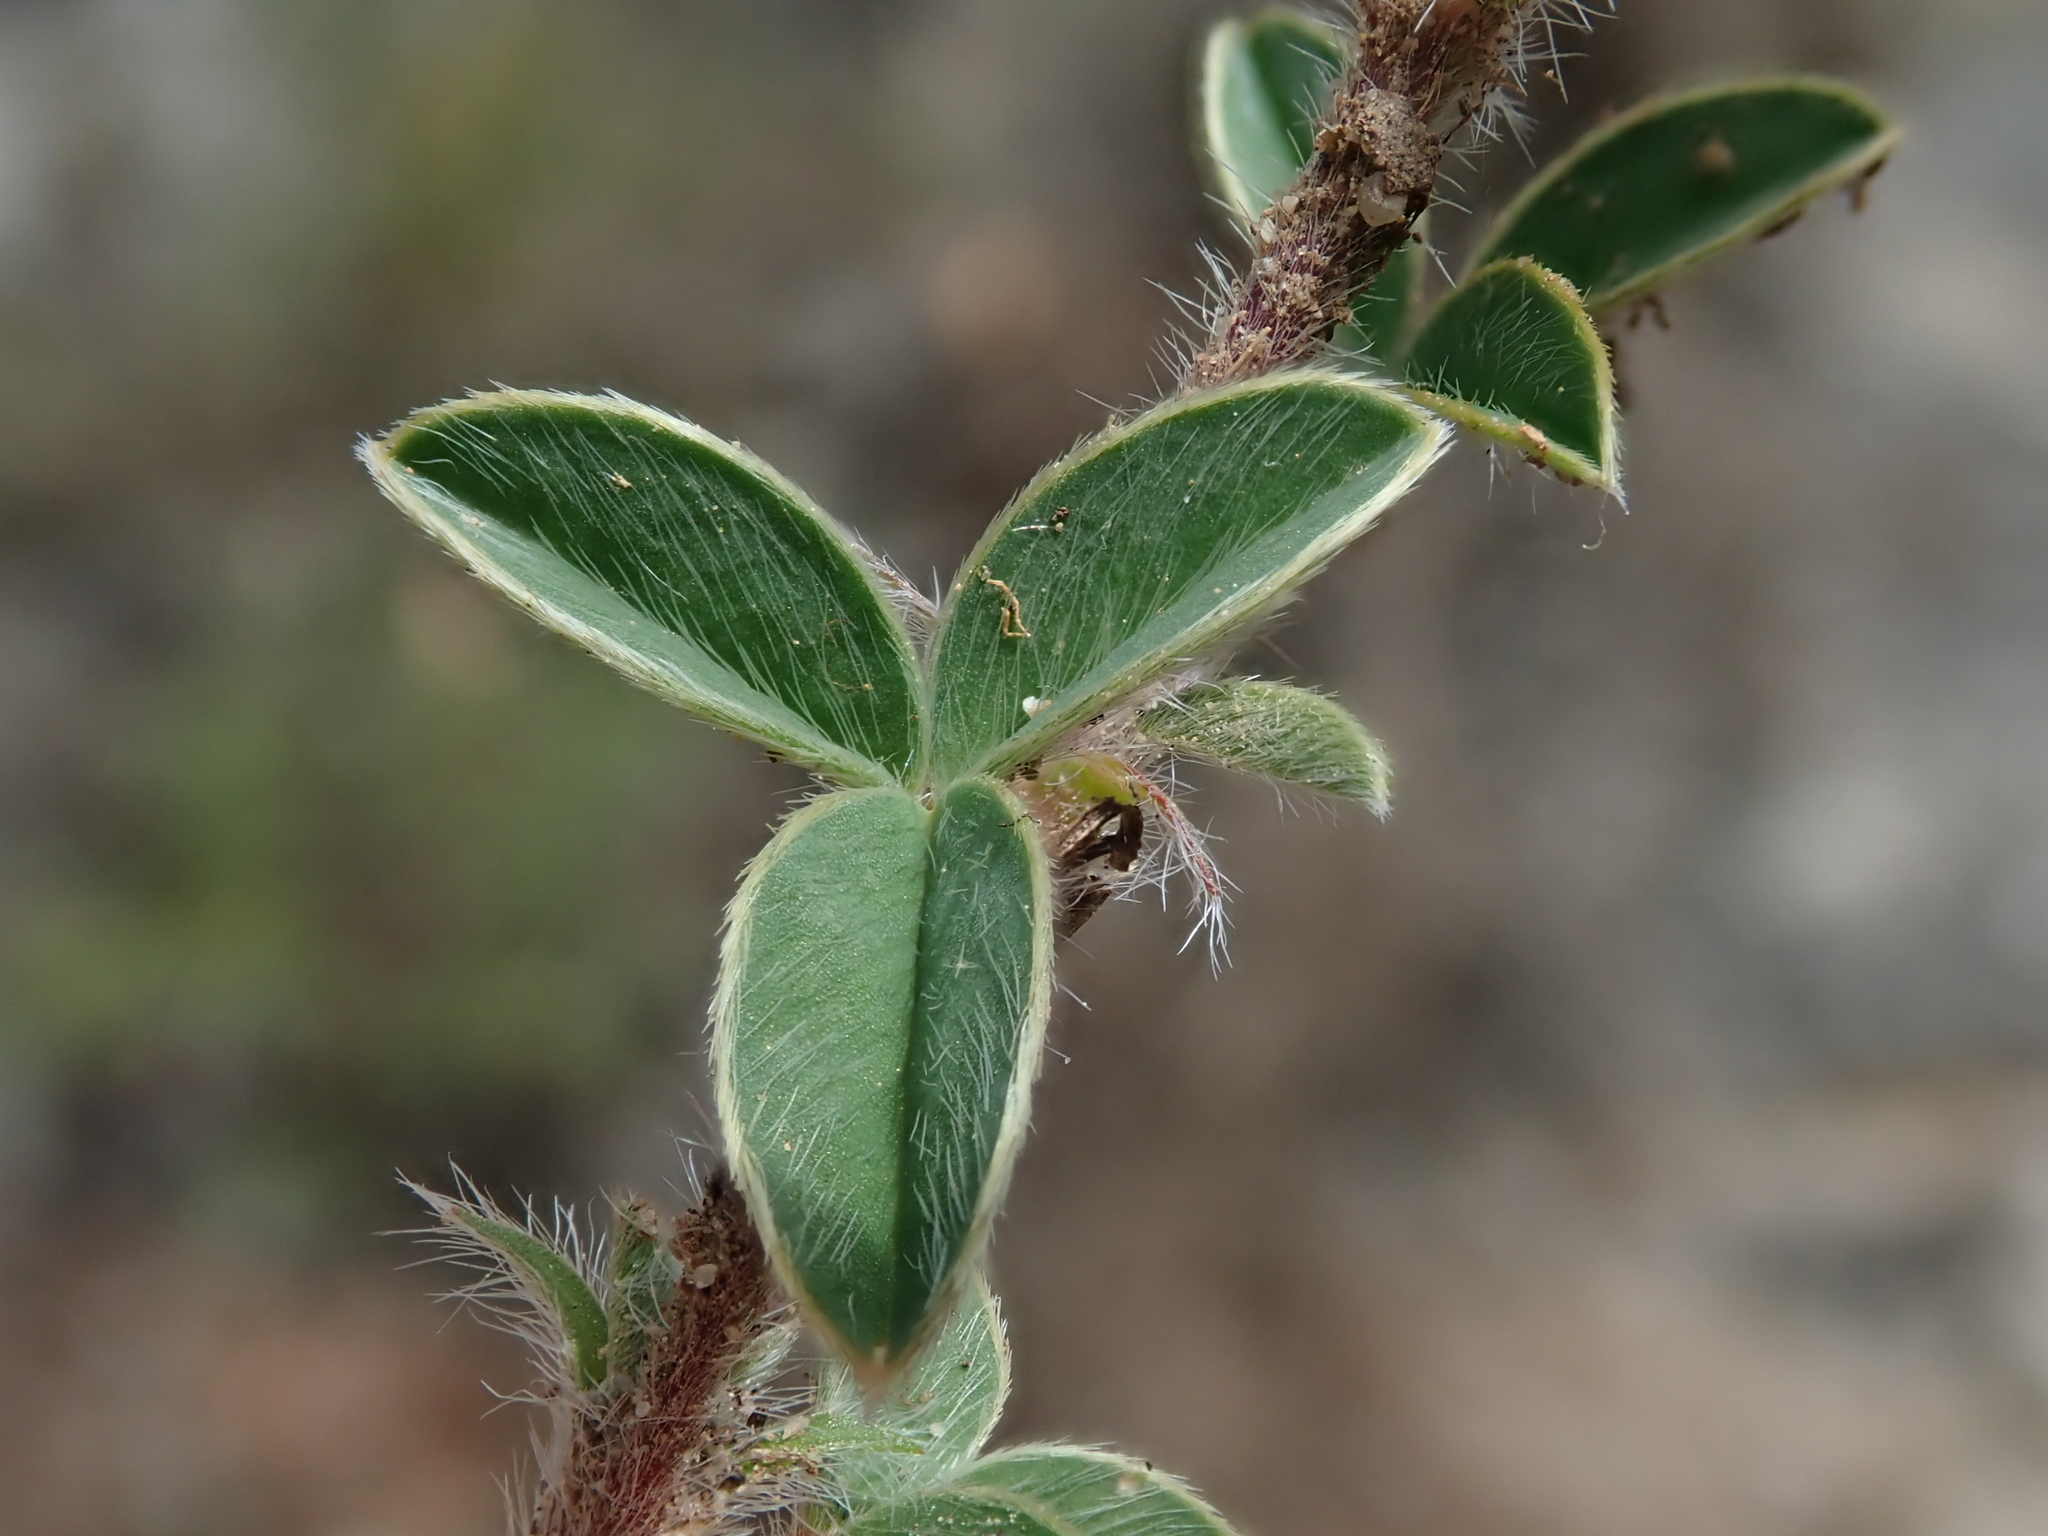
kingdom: Plantae
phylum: Tracheophyta
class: Magnoliopsida
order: Fabales
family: Fabaceae
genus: Argyrolobium
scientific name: Argyrolobium zanonii
